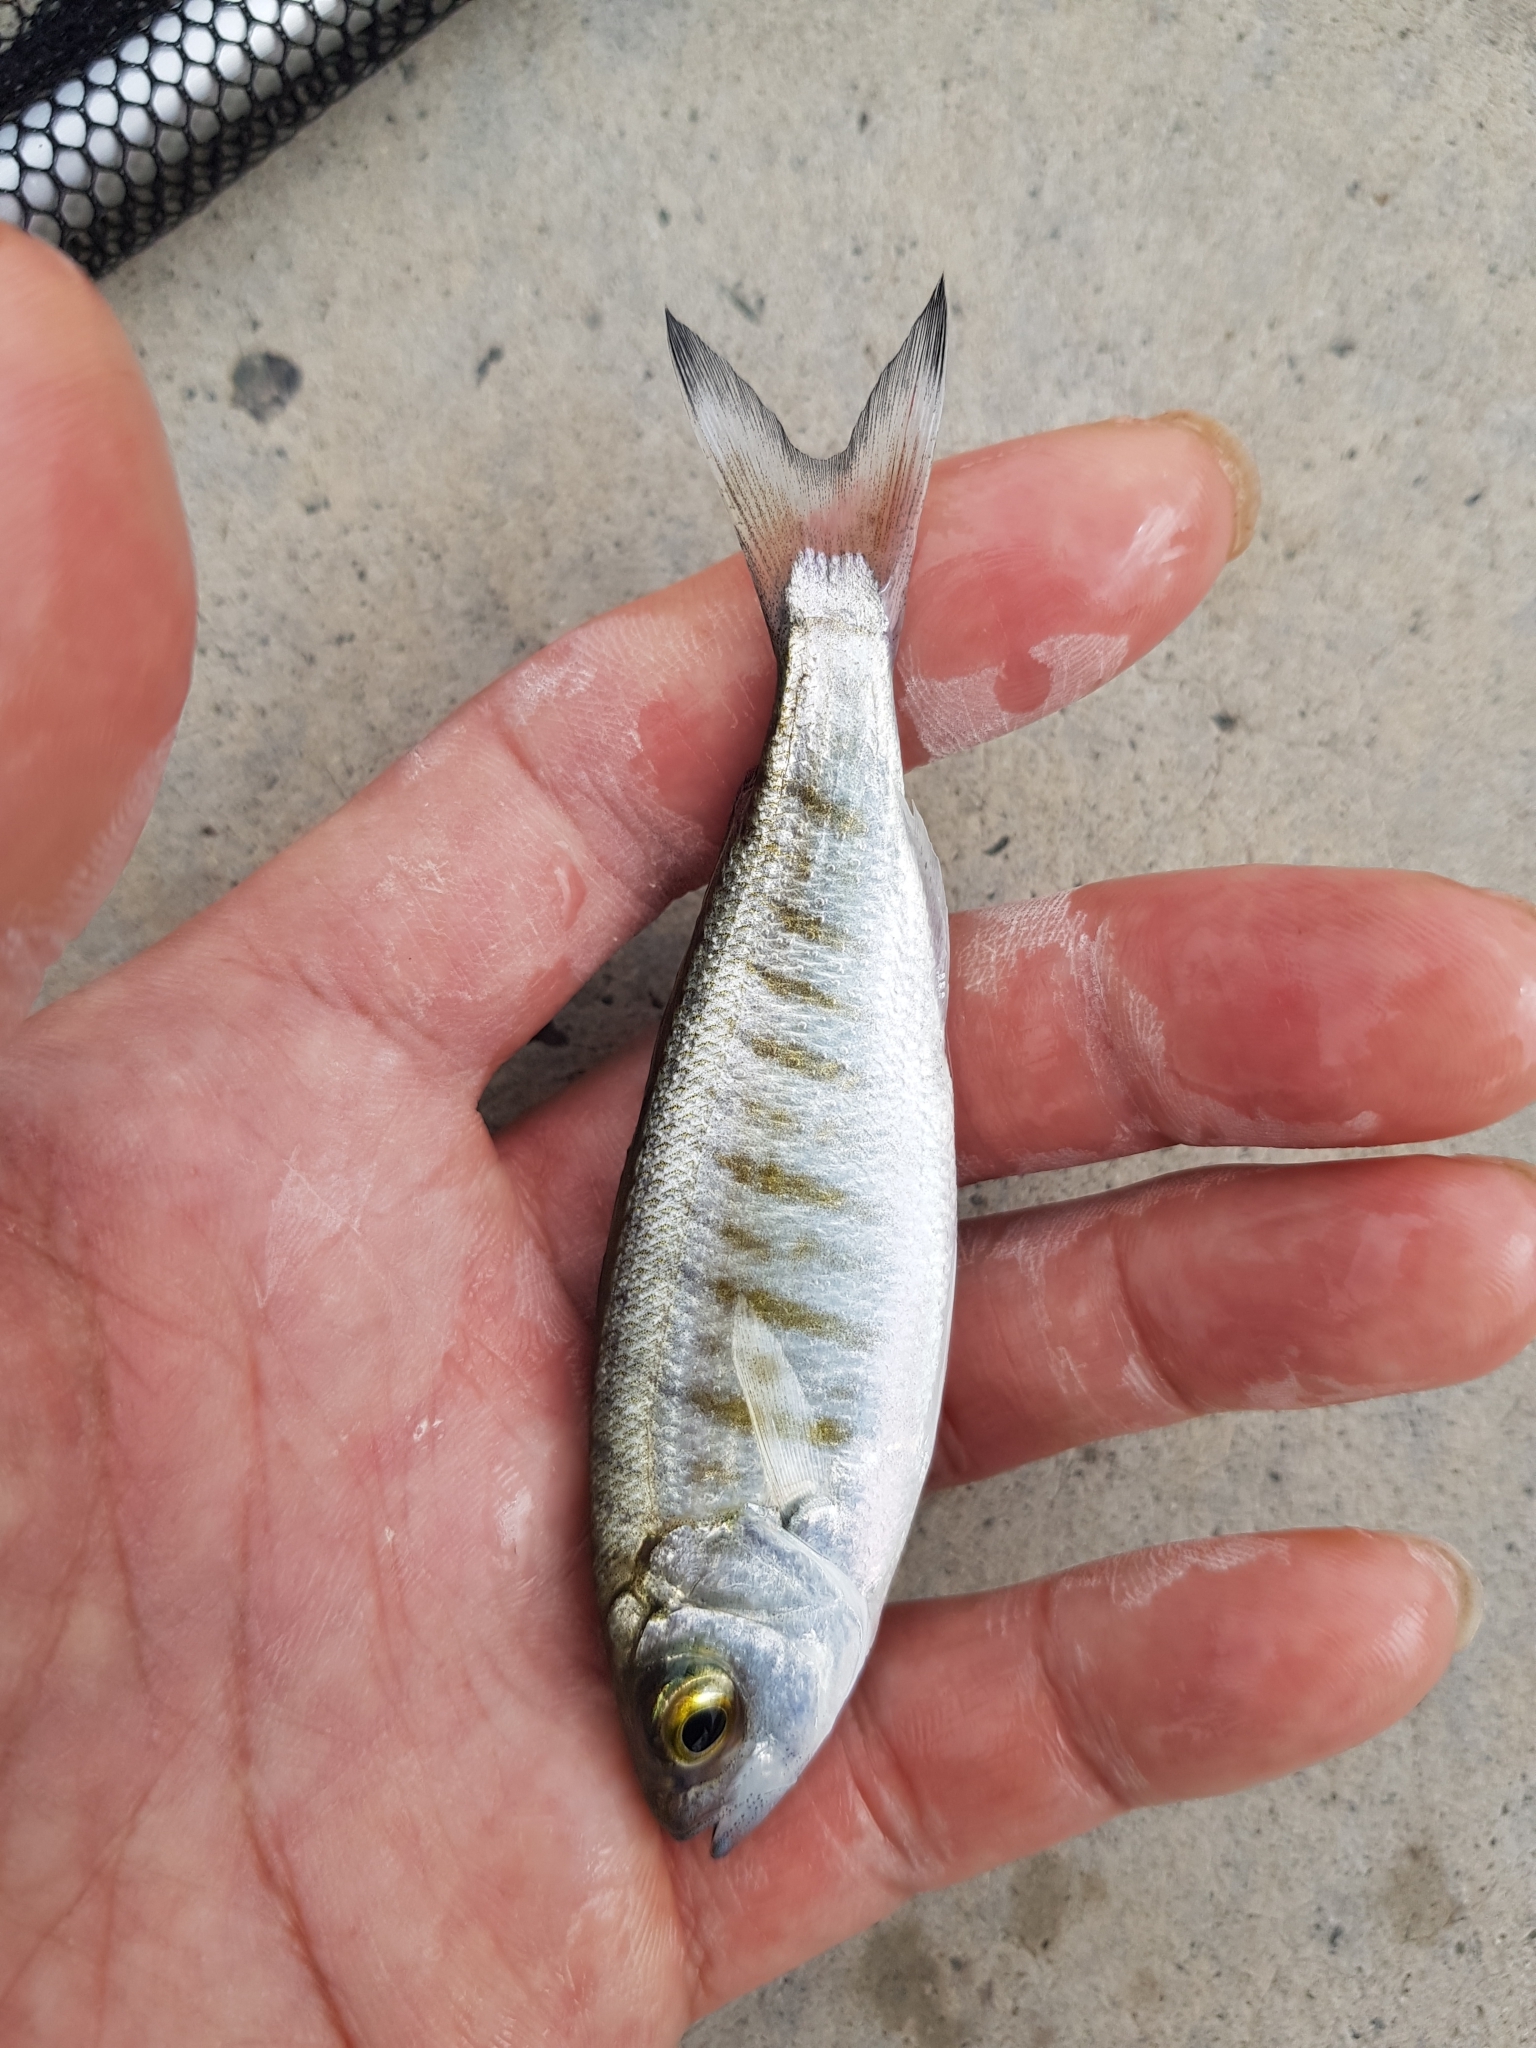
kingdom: Animalia
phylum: Chordata
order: Perciformes
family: Arripidae
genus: Arripis
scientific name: Arripis georgianus
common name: Australian herring
